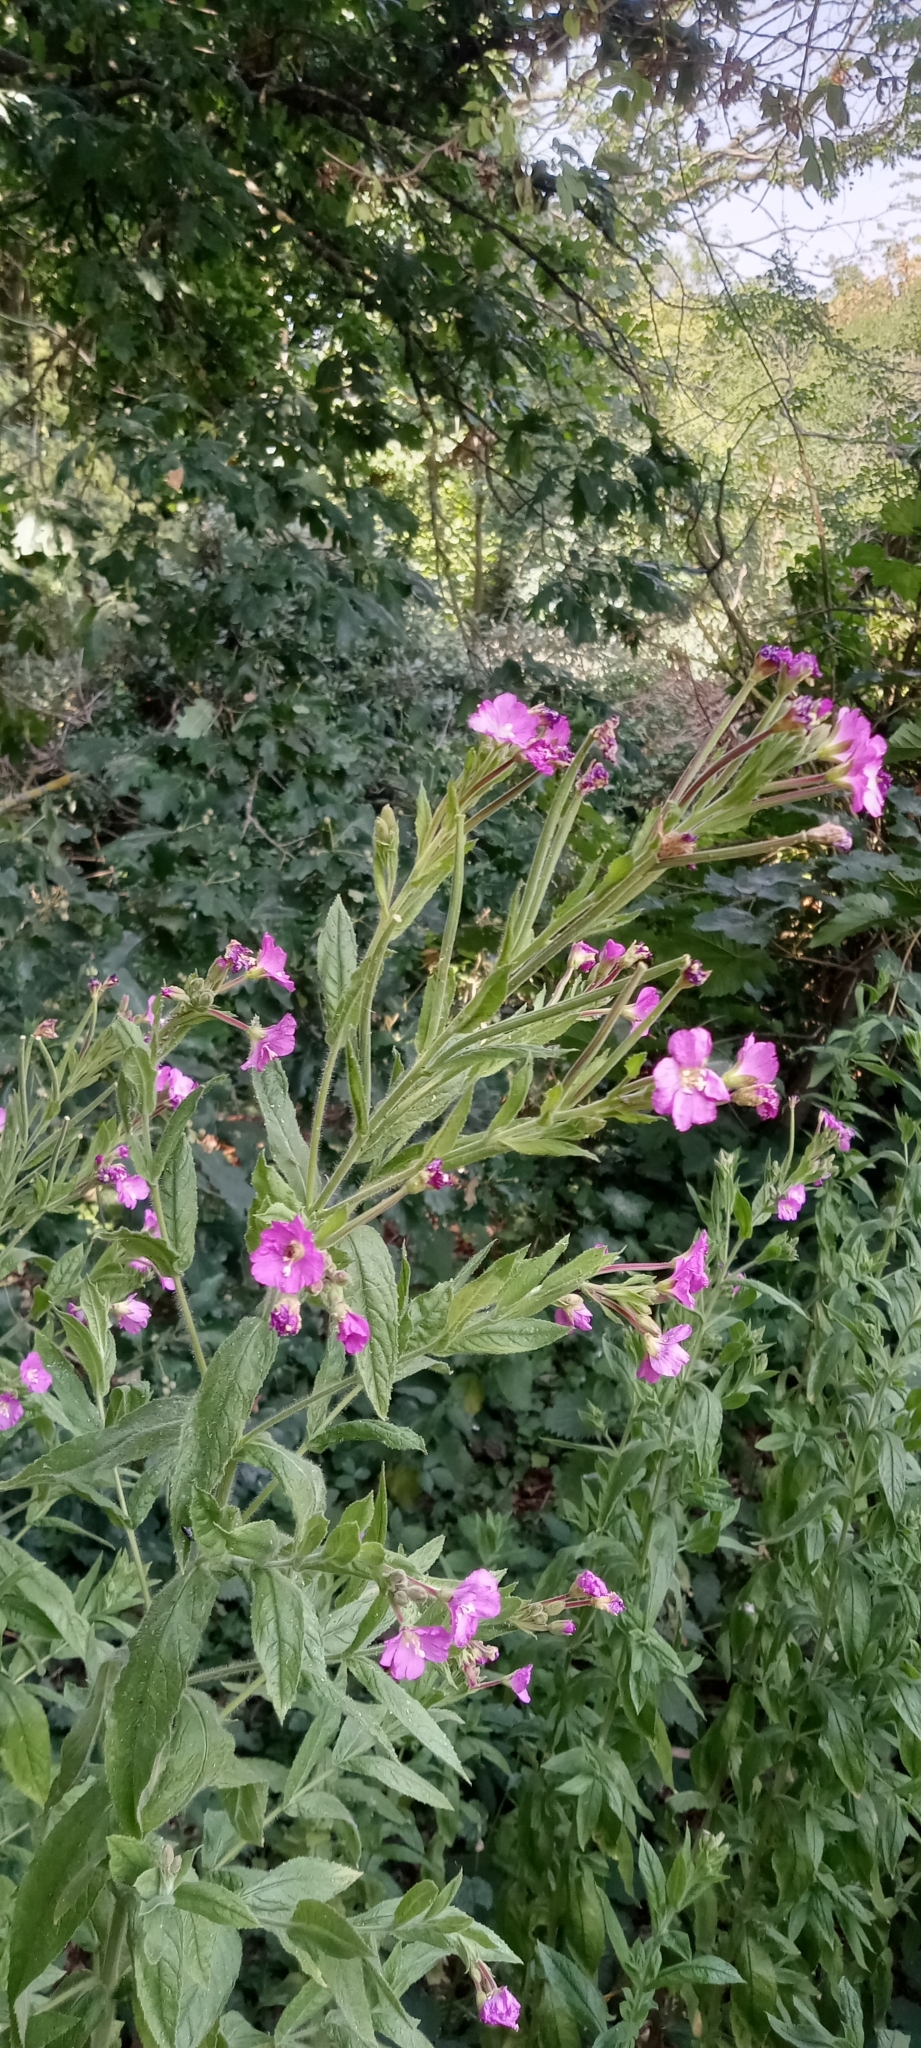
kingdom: Plantae
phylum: Tracheophyta
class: Magnoliopsida
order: Myrtales
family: Onagraceae
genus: Epilobium
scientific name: Epilobium hirsutum
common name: Great willowherb
